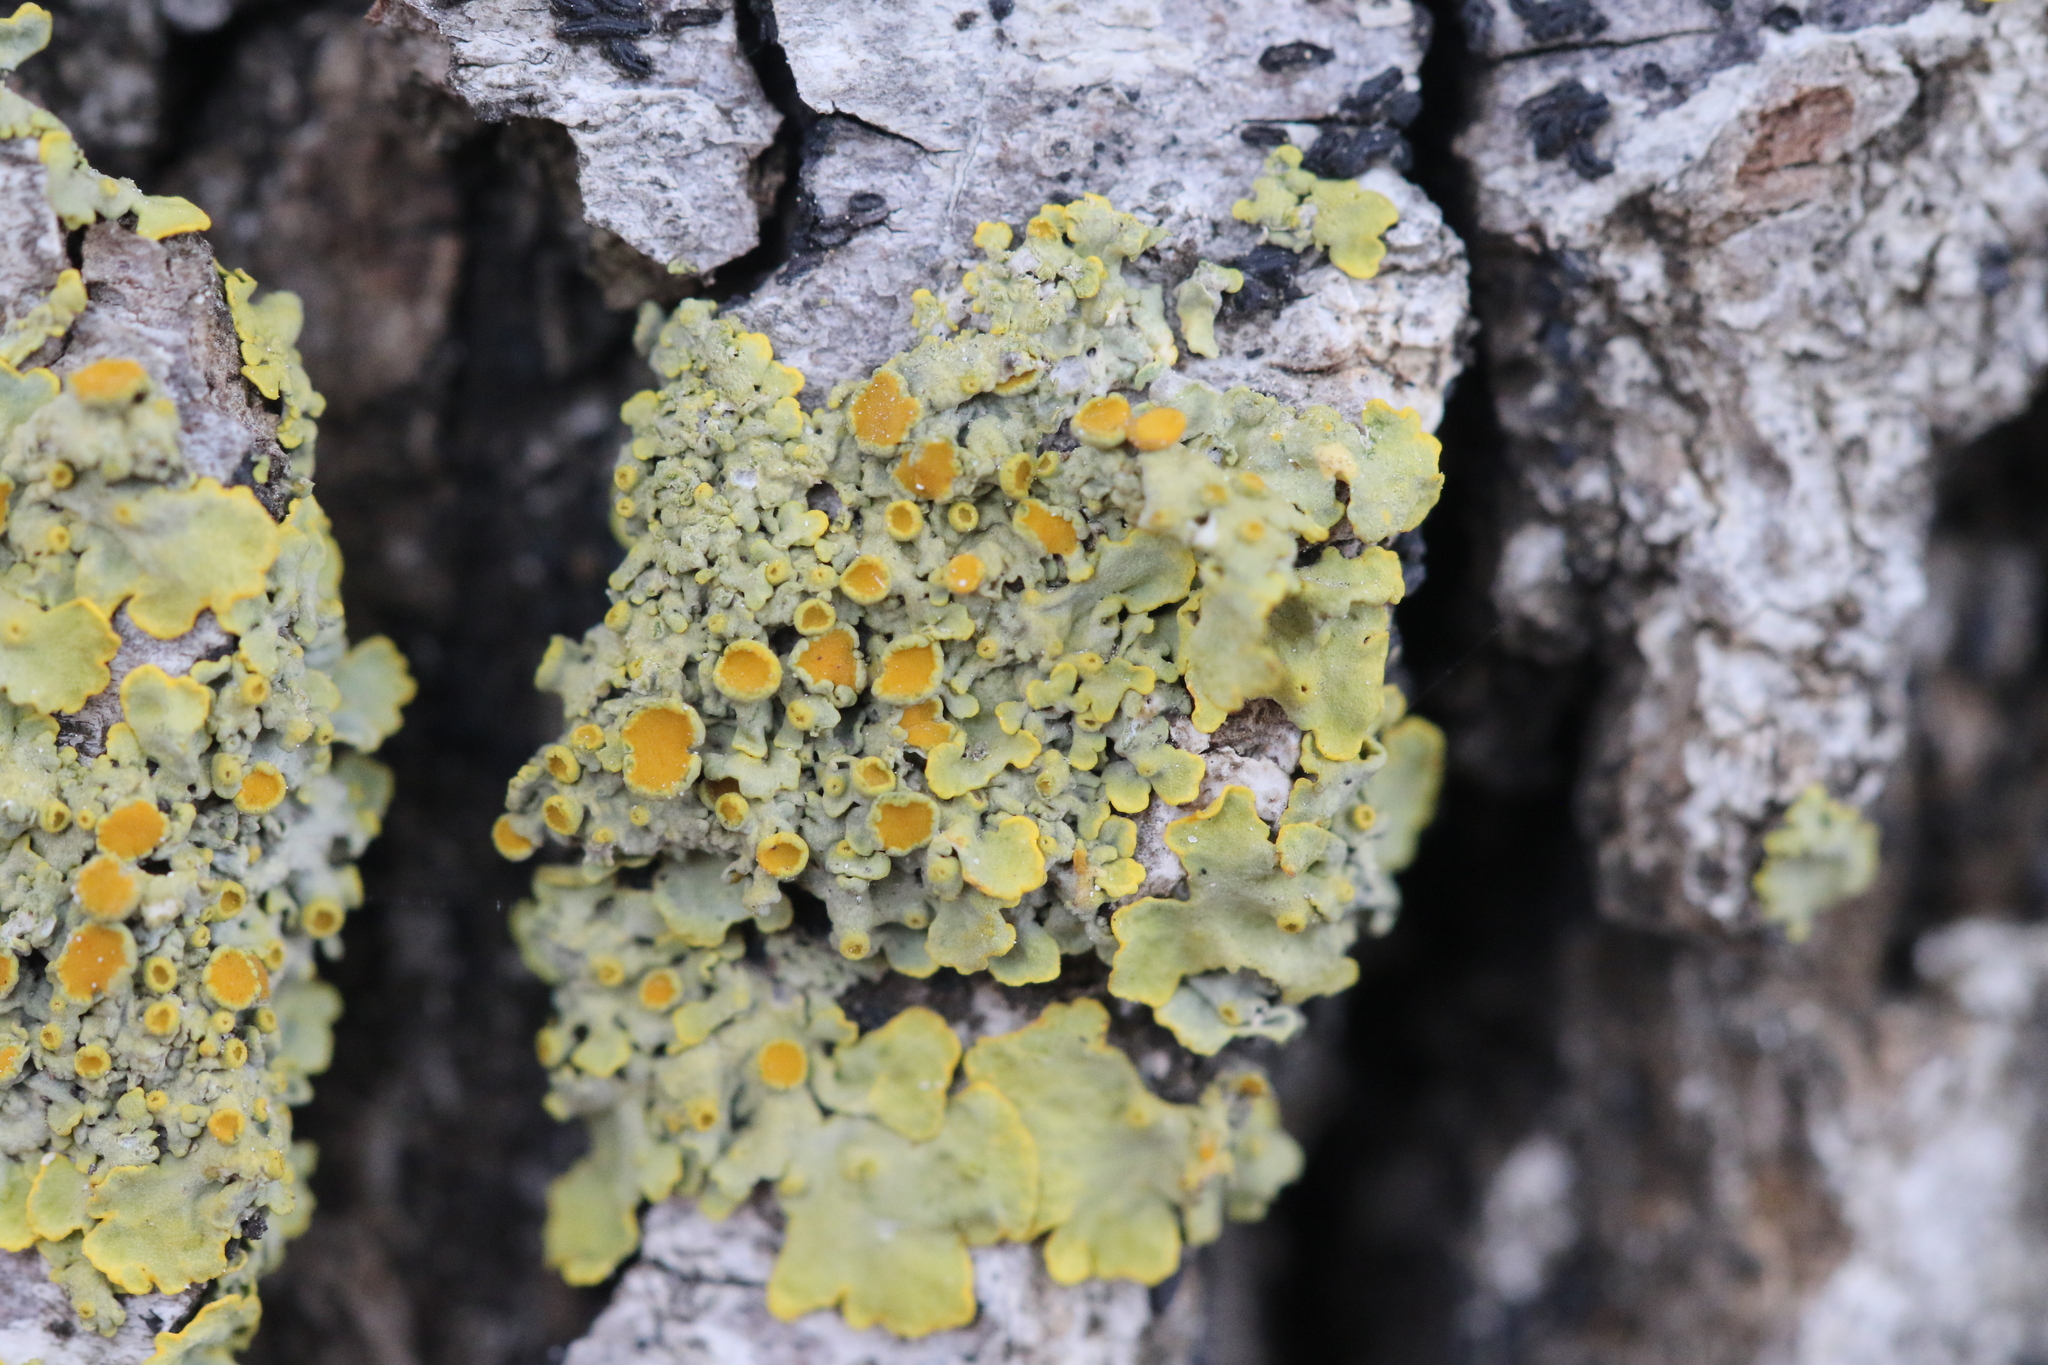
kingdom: Fungi
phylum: Ascomycota
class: Lecanoromycetes
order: Teloschistales
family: Teloschistaceae
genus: Xanthoria
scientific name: Xanthoria parietina
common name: Common orange lichen
